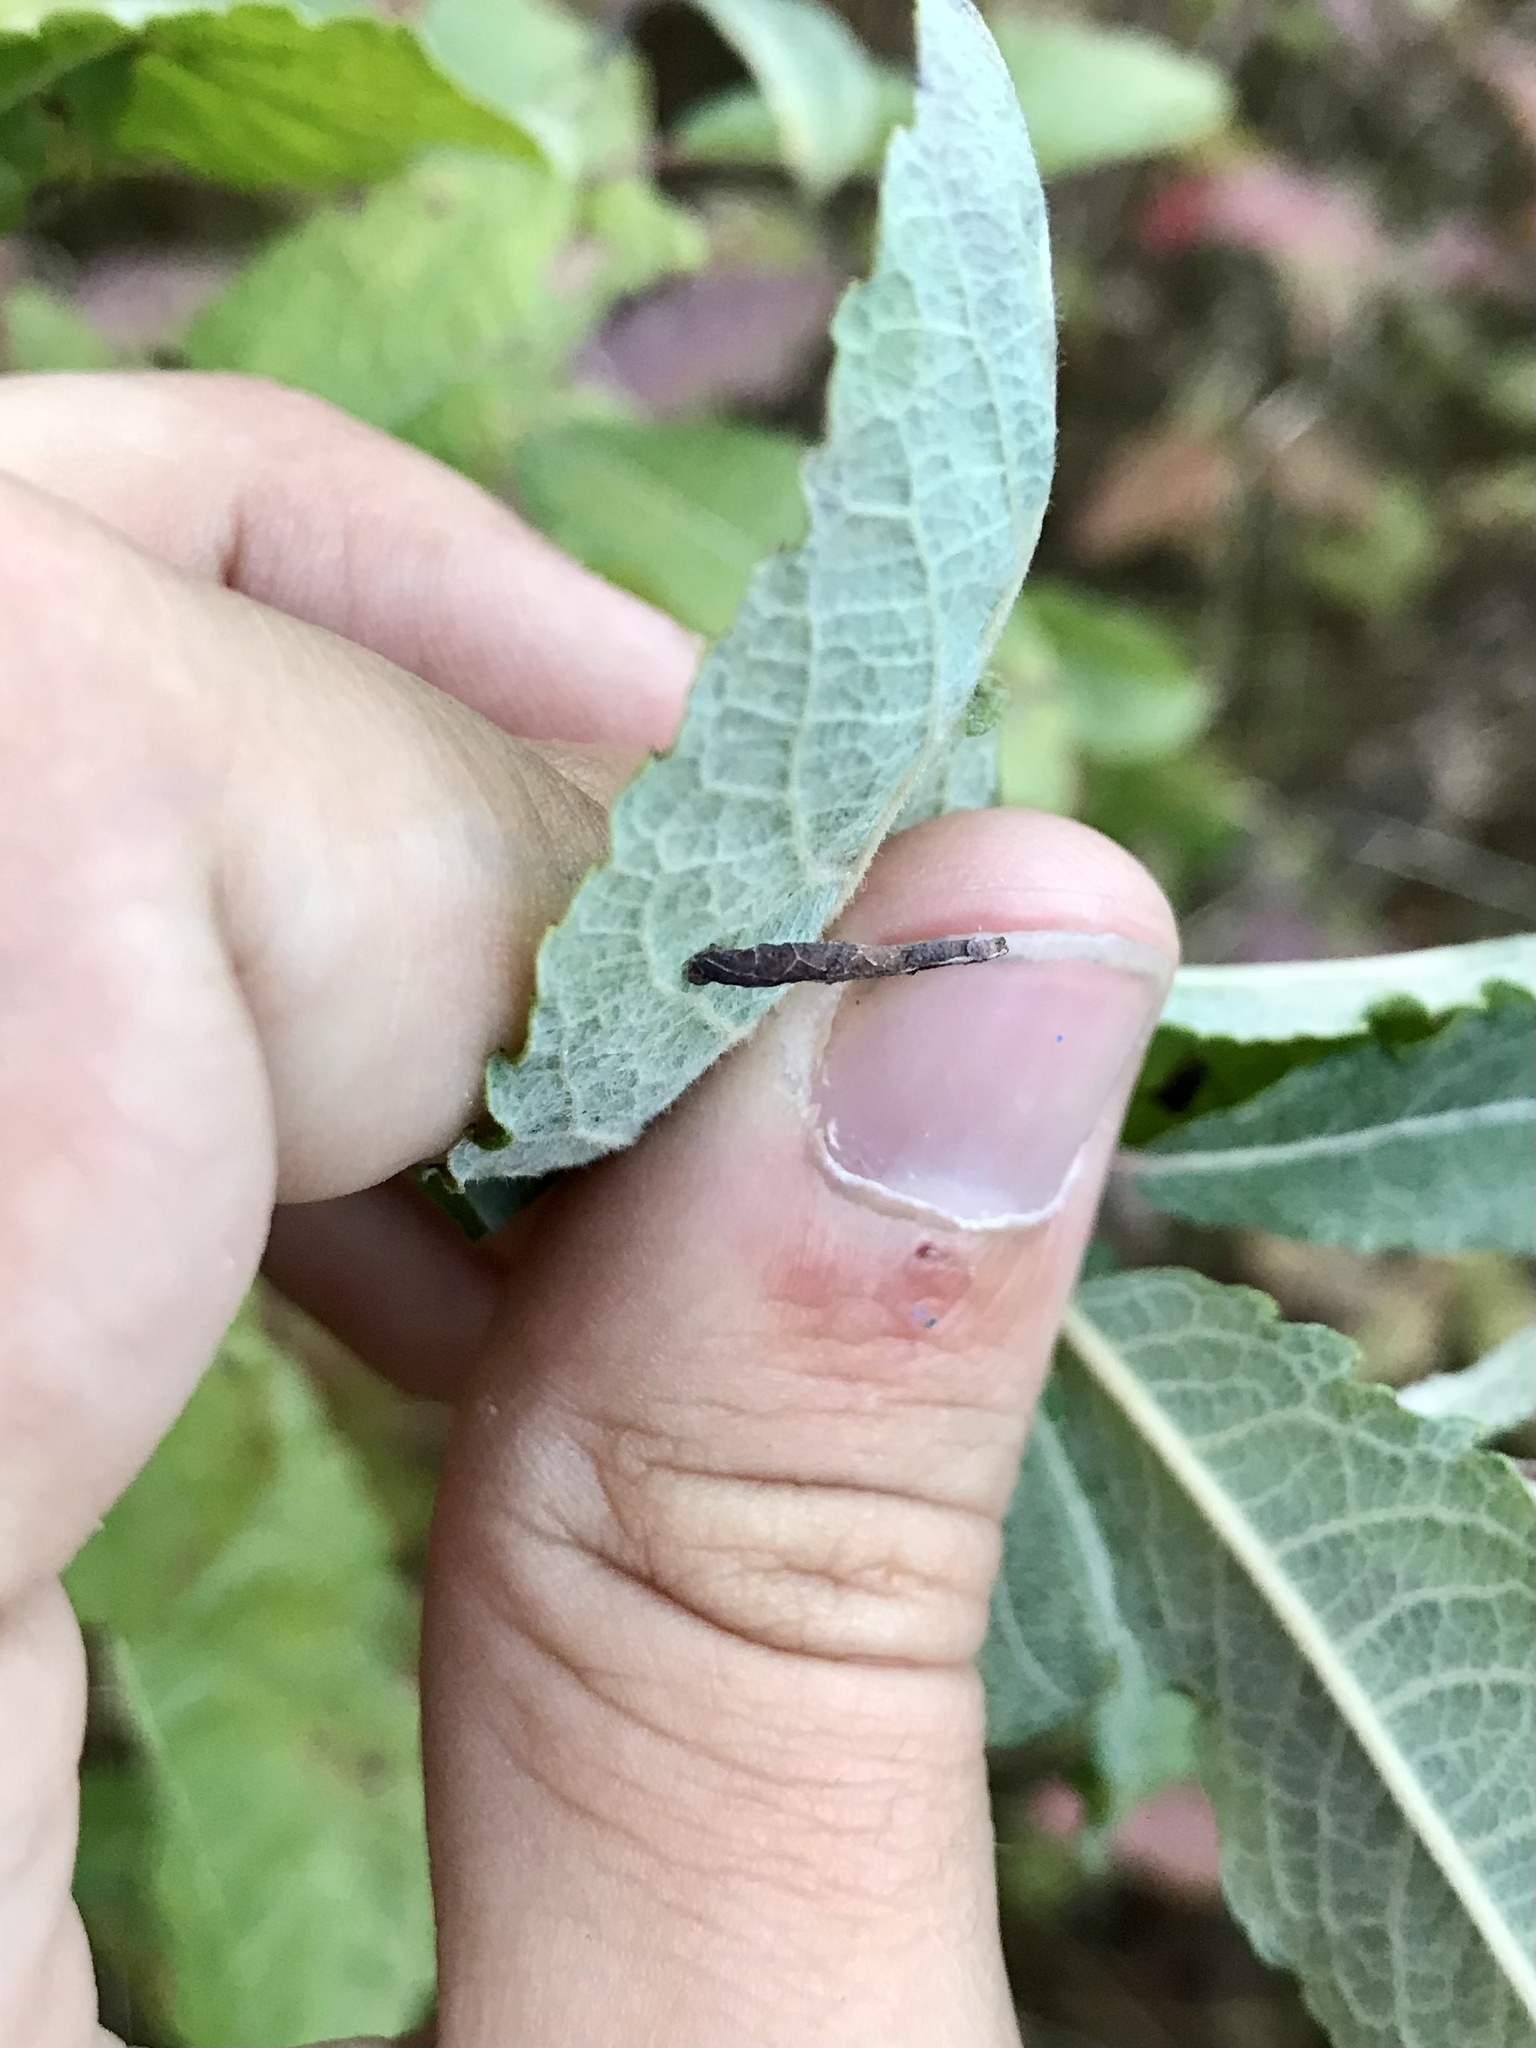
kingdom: Animalia
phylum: Arthropoda
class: Insecta
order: Lepidoptera
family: Coleophoridae
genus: Coleophora
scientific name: Coleophora salicivorella
